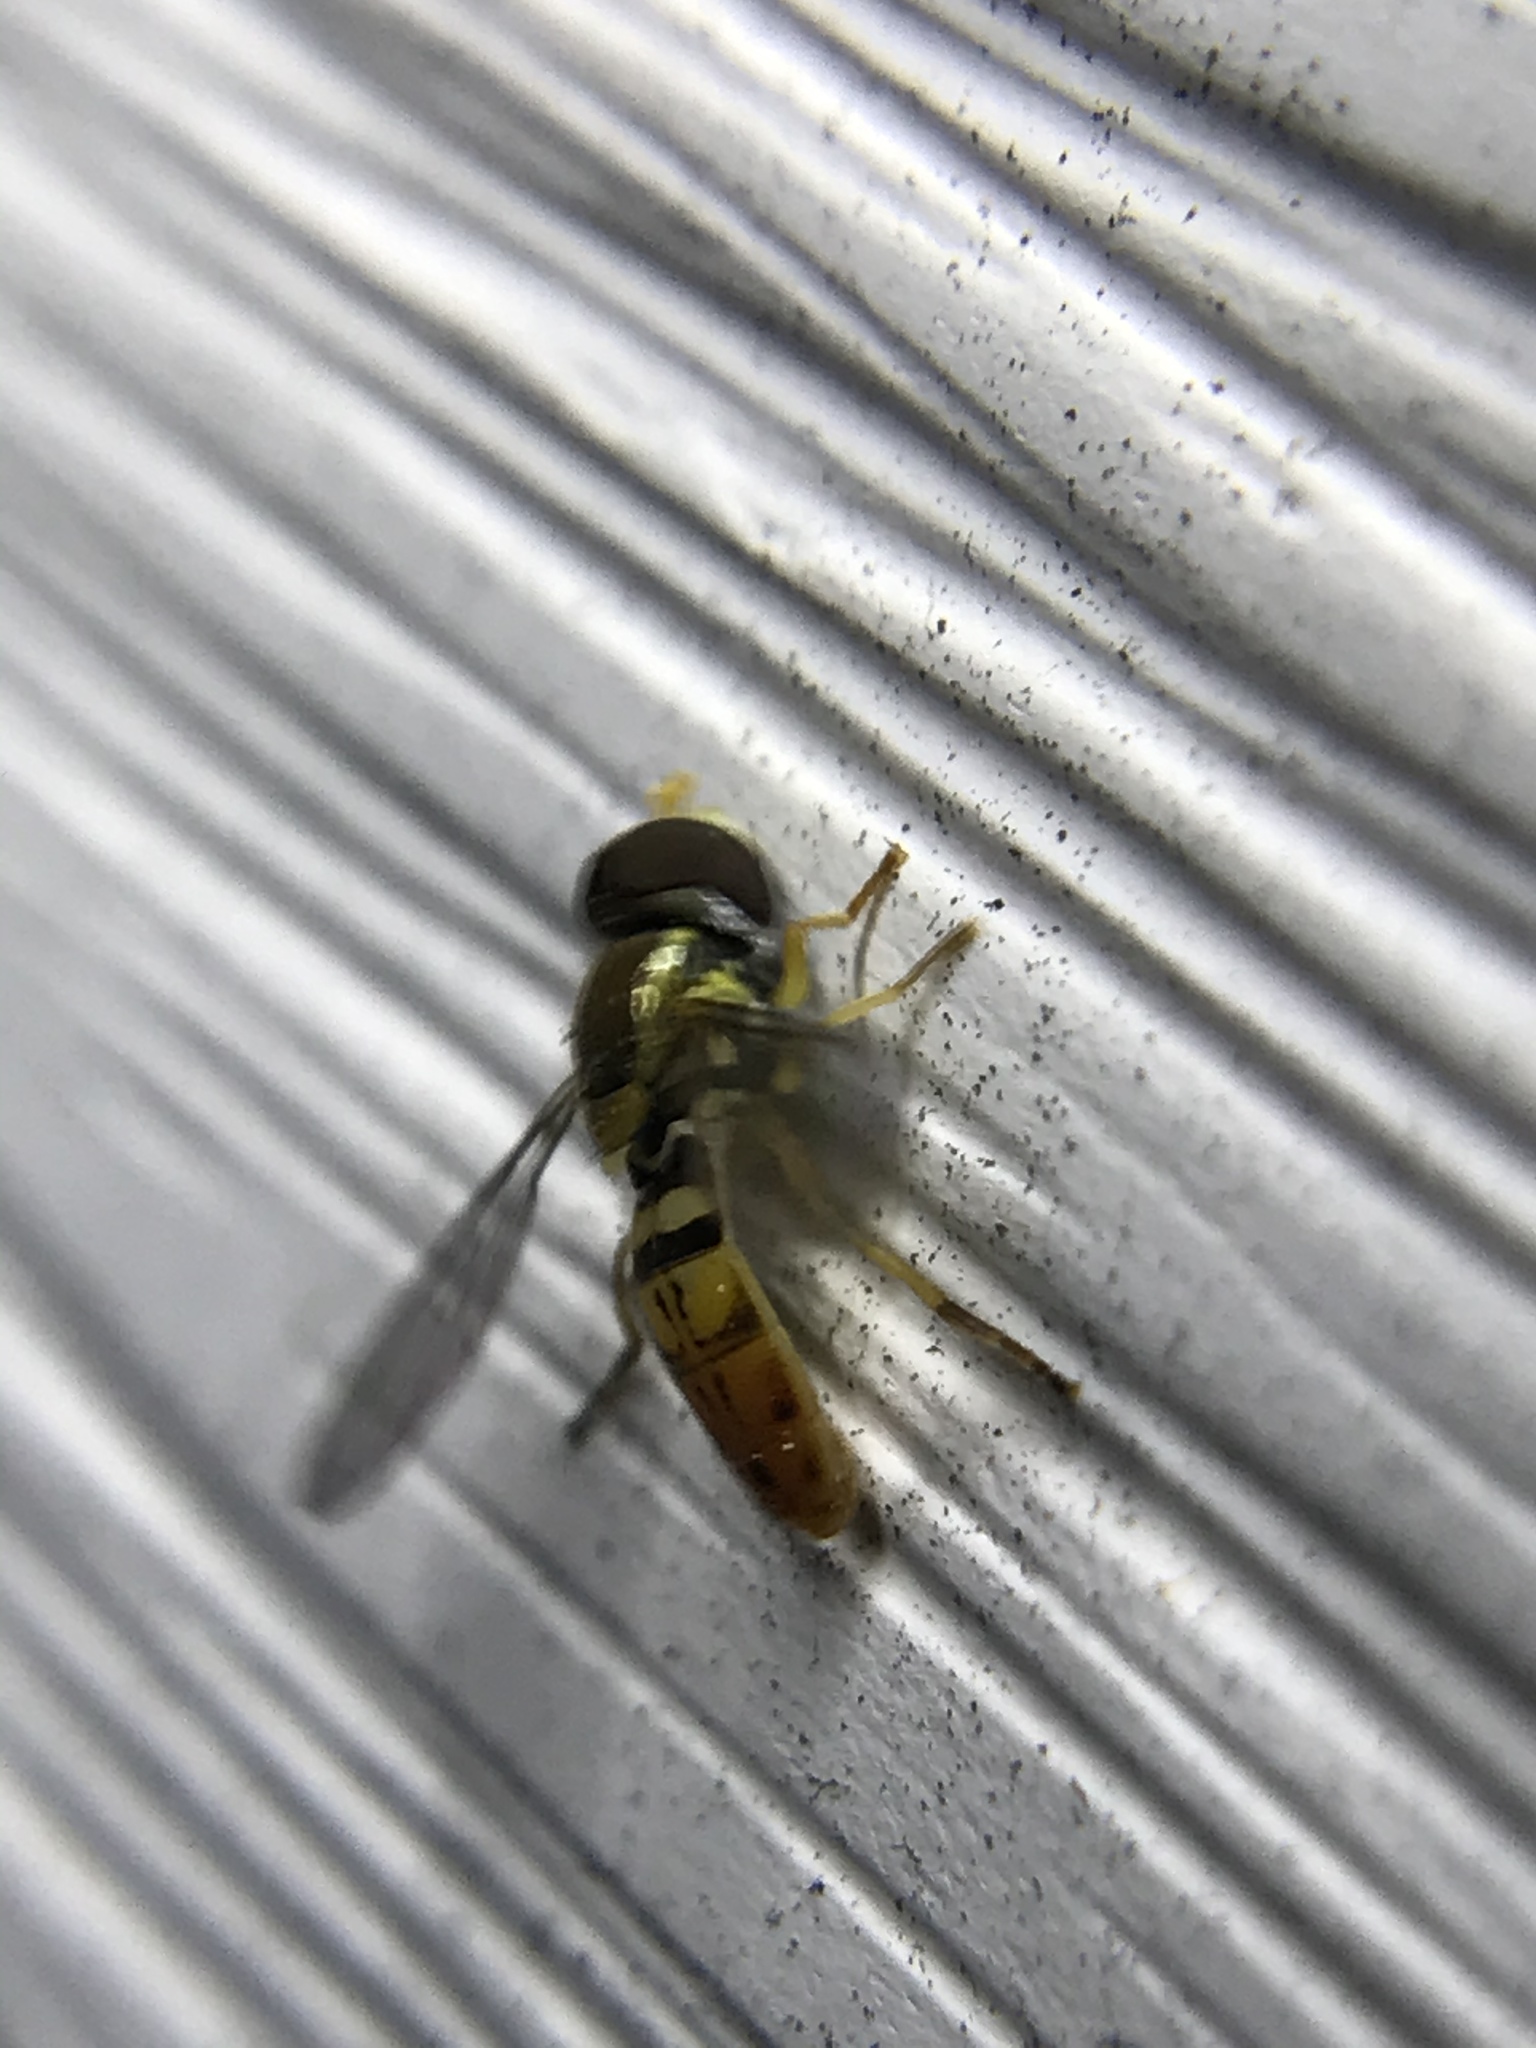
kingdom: Animalia
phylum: Arthropoda
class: Insecta
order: Diptera
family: Syrphidae
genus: Toxomerus
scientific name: Toxomerus marginatus
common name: Syrphid fly
